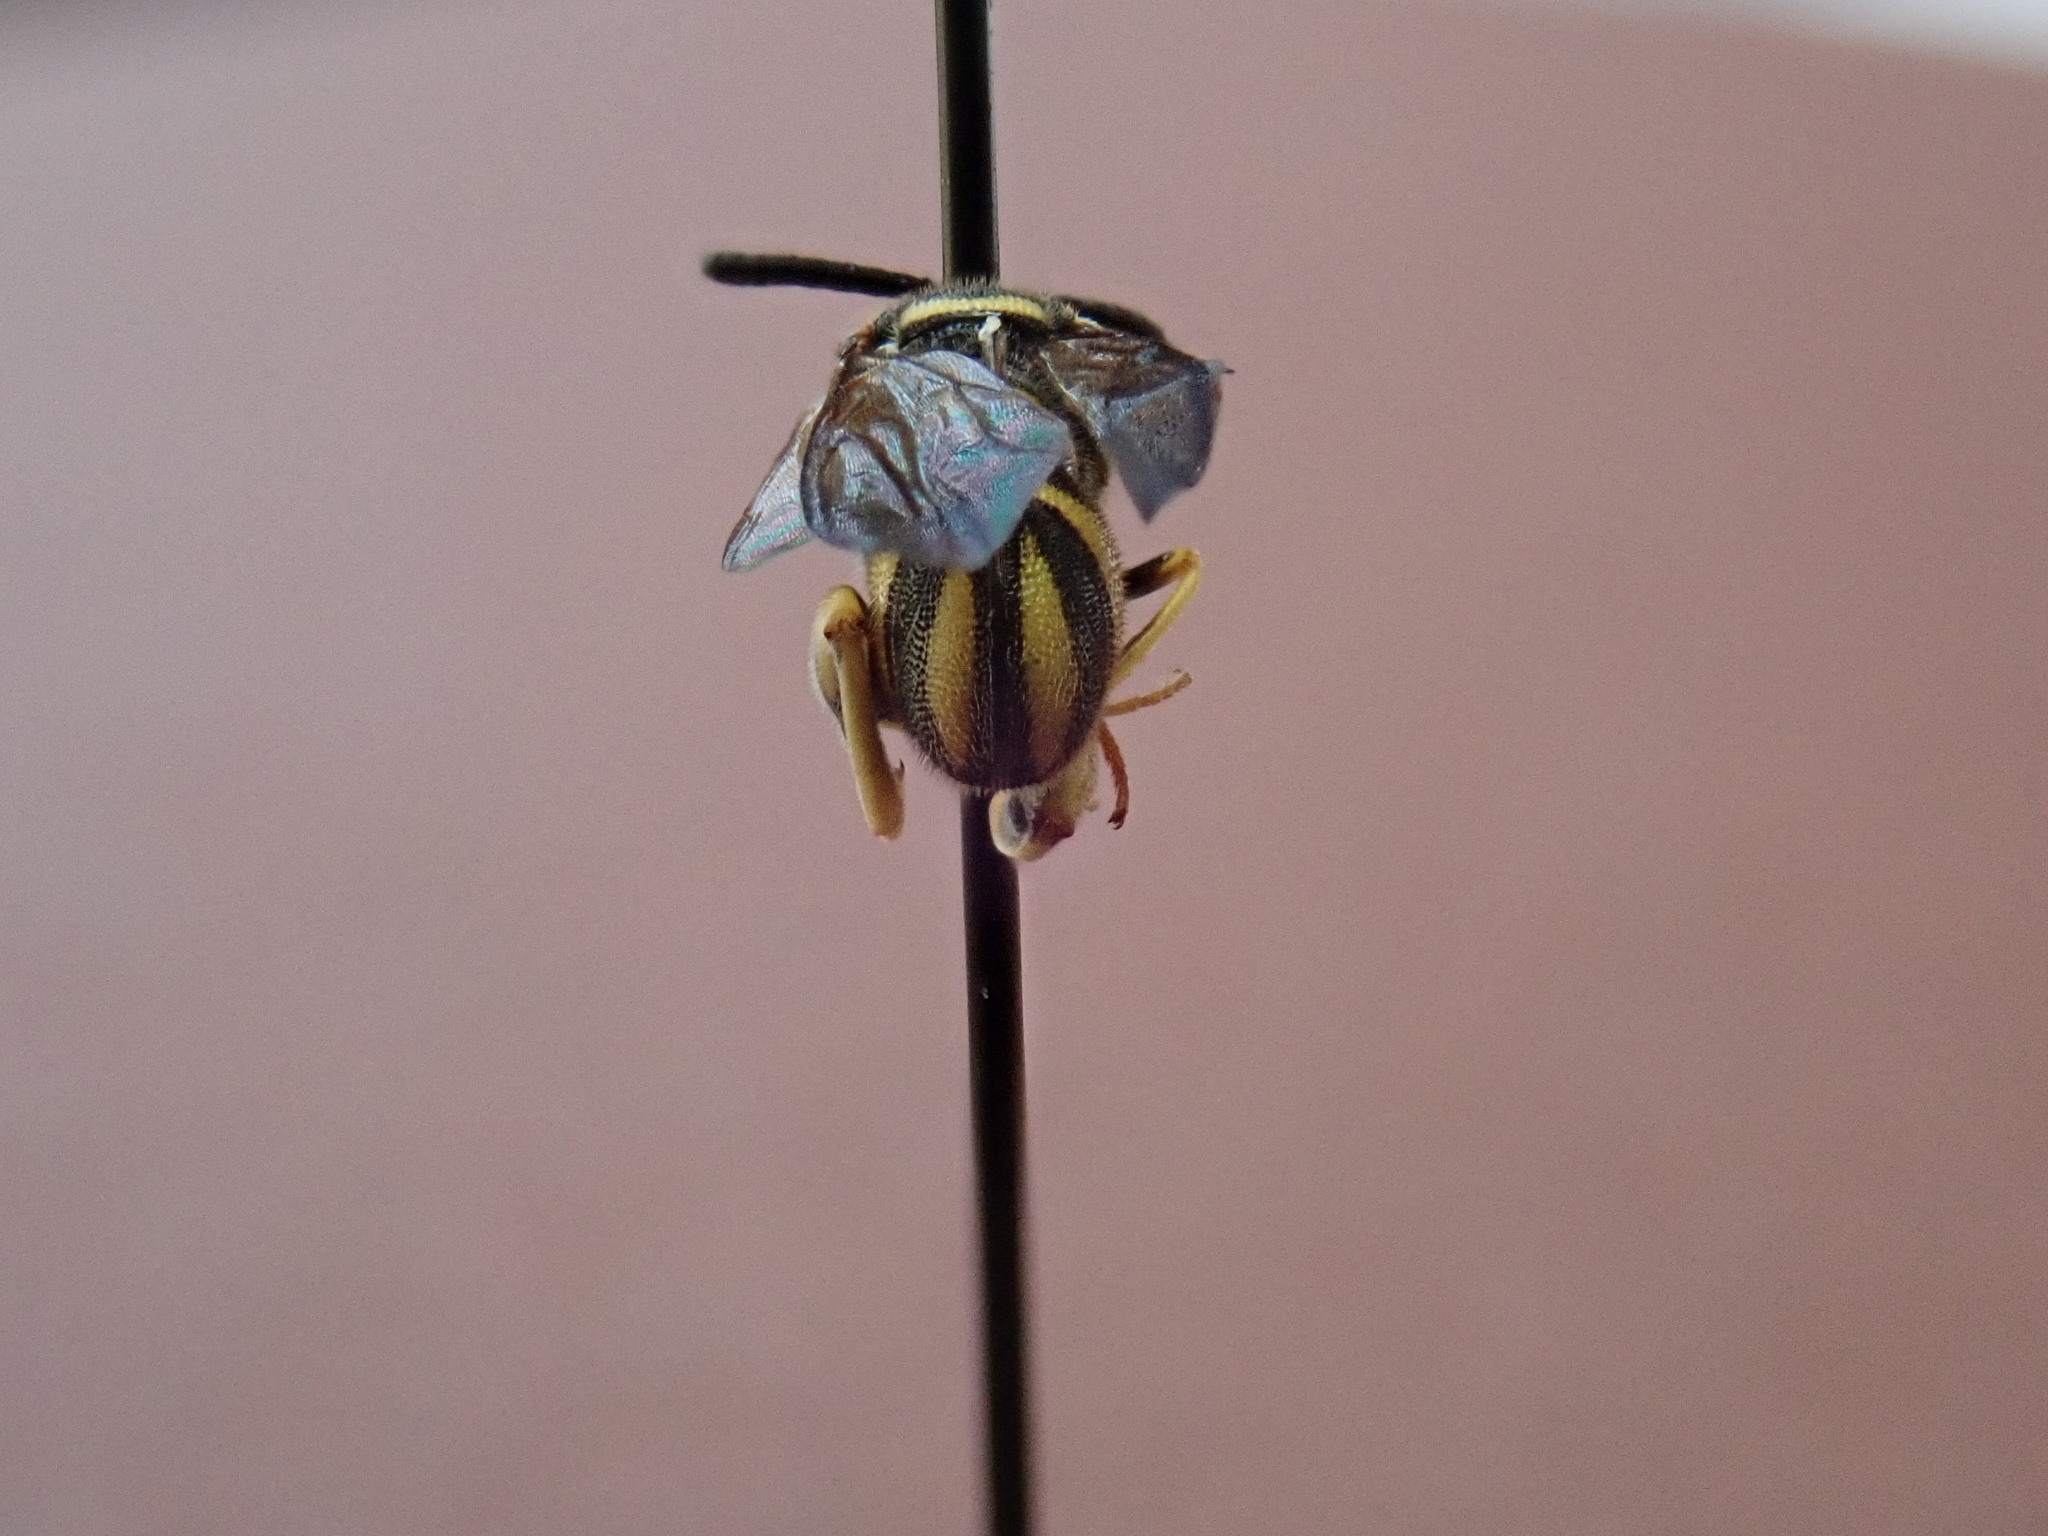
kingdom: Animalia
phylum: Arthropoda
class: Insecta
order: Hymenoptera
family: Leucospidae
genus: Leucospis
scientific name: Leucospis affinis
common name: Wasp
